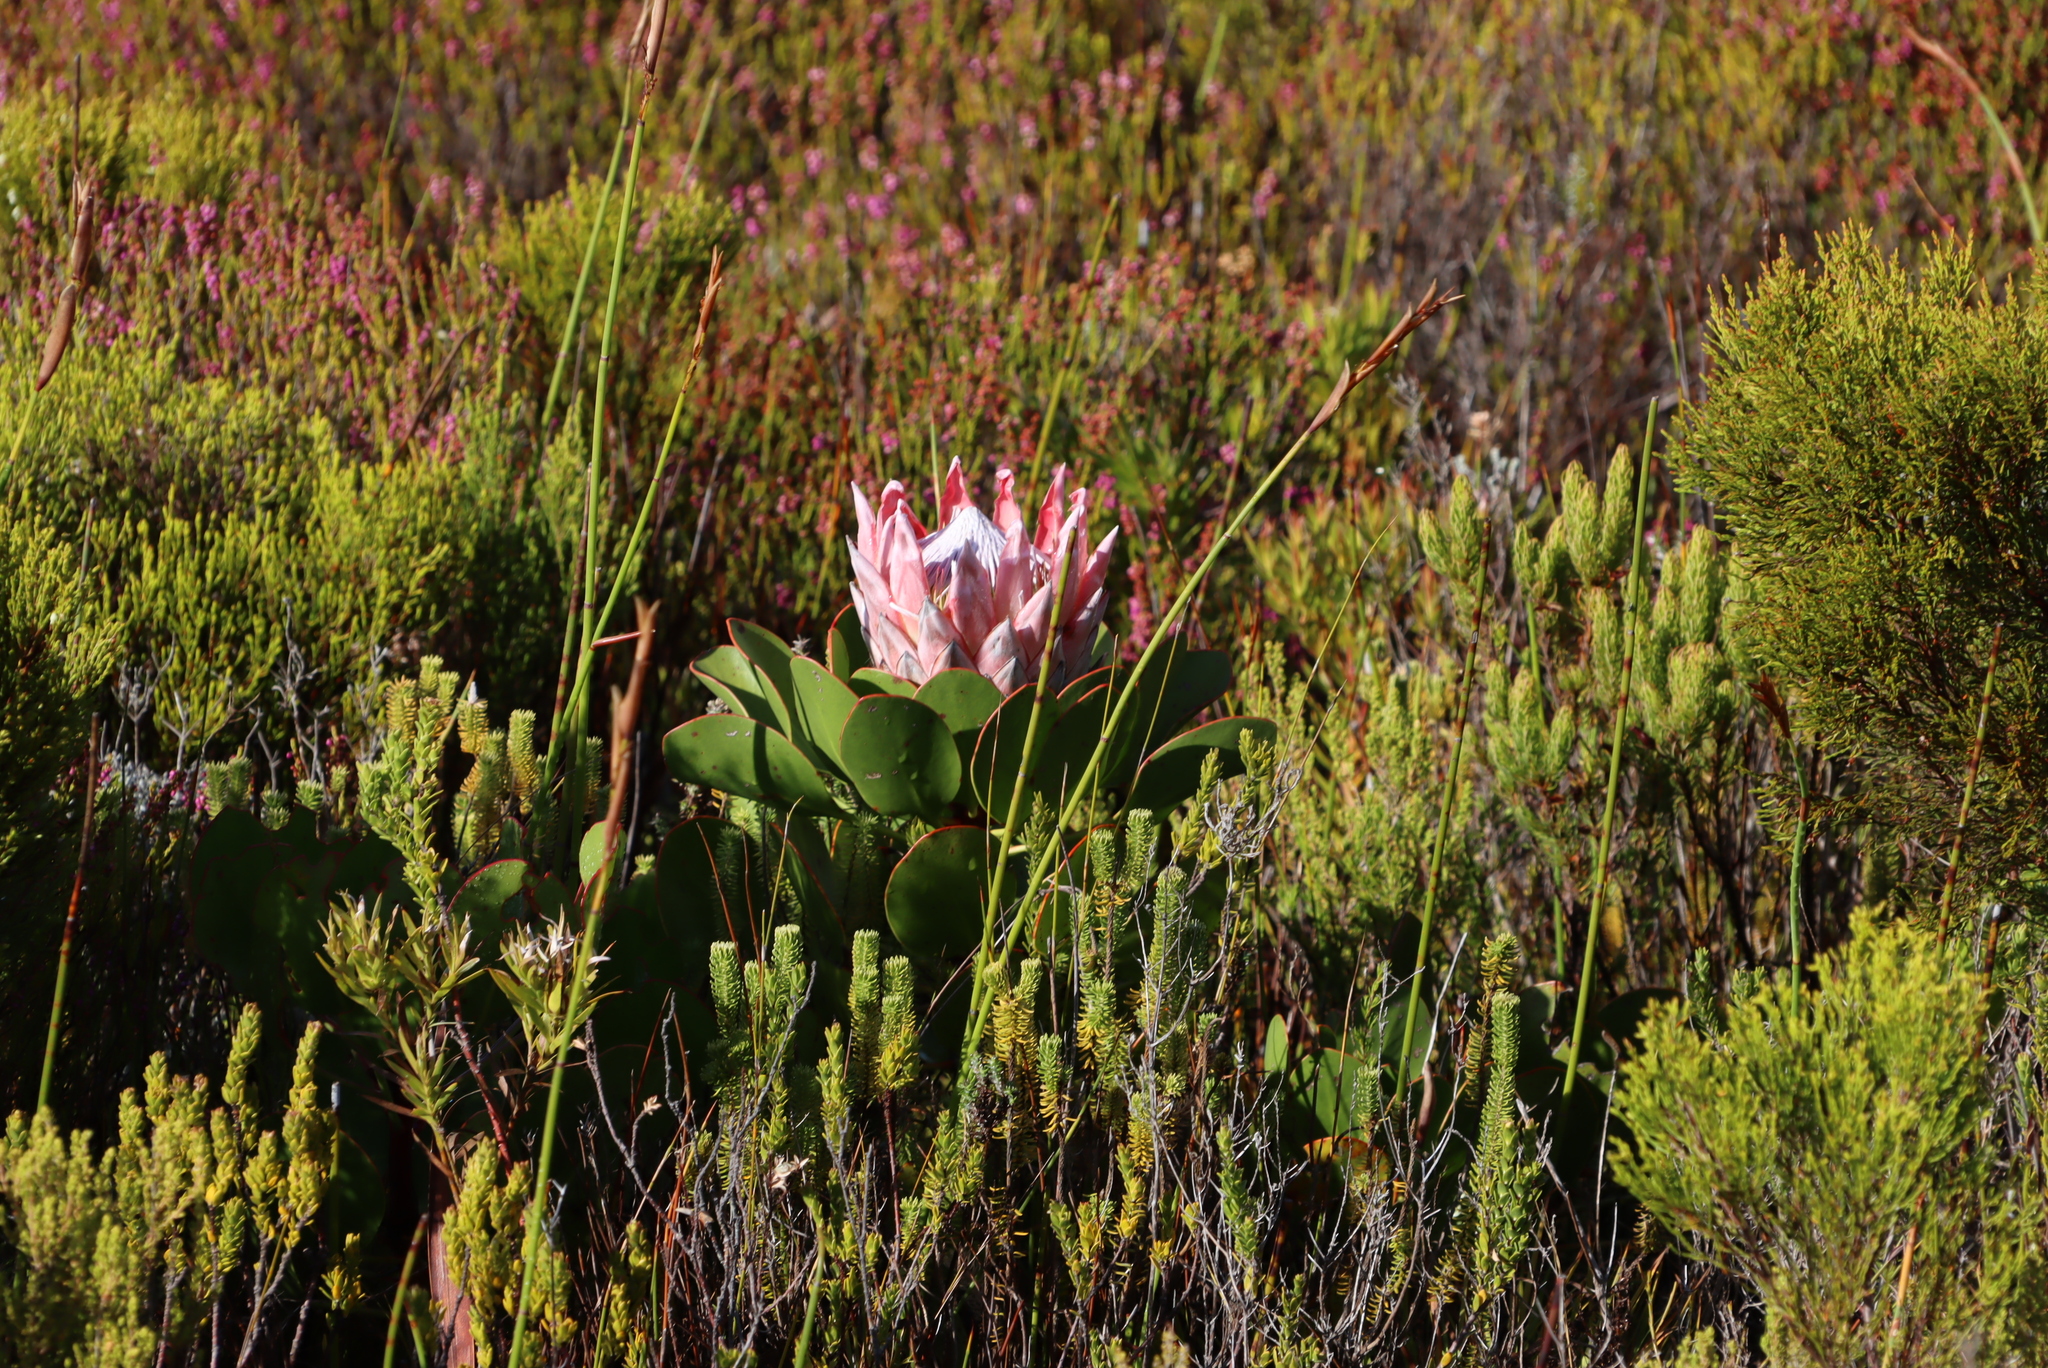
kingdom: Plantae
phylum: Tracheophyta
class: Magnoliopsida
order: Proteales
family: Proteaceae
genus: Protea
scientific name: Protea cynaroides
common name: King protea
